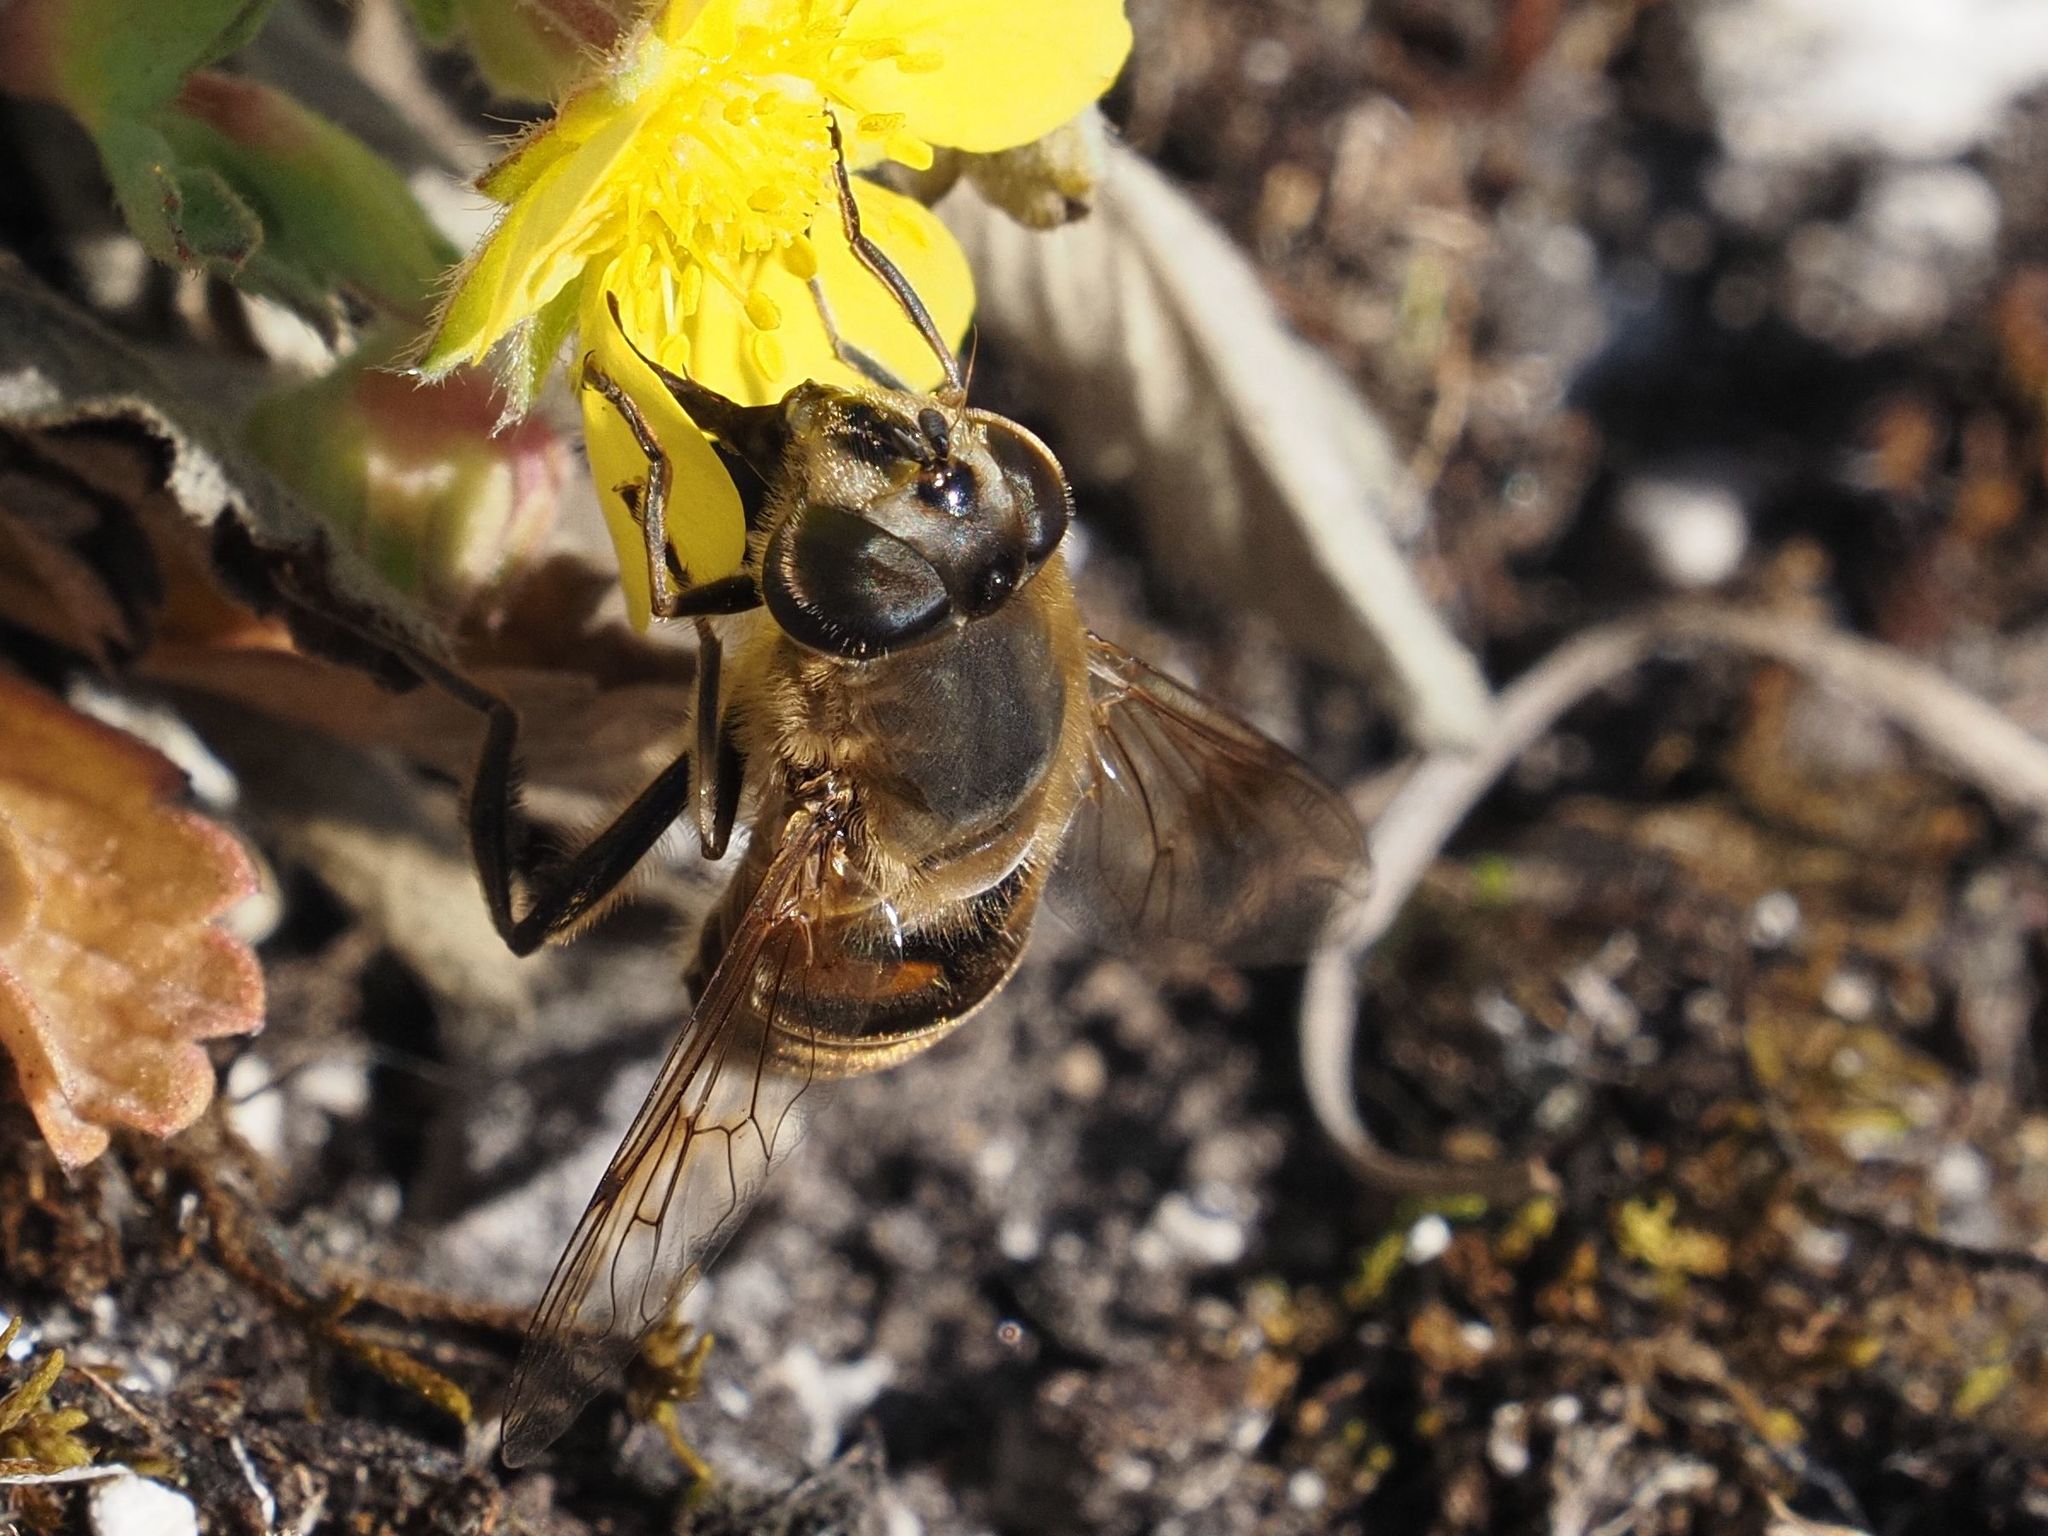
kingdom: Animalia
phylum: Arthropoda
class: Insecta
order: Diptera
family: Syrphidae
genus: Eristalis
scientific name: Eristalis tenax
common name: Drone fly
